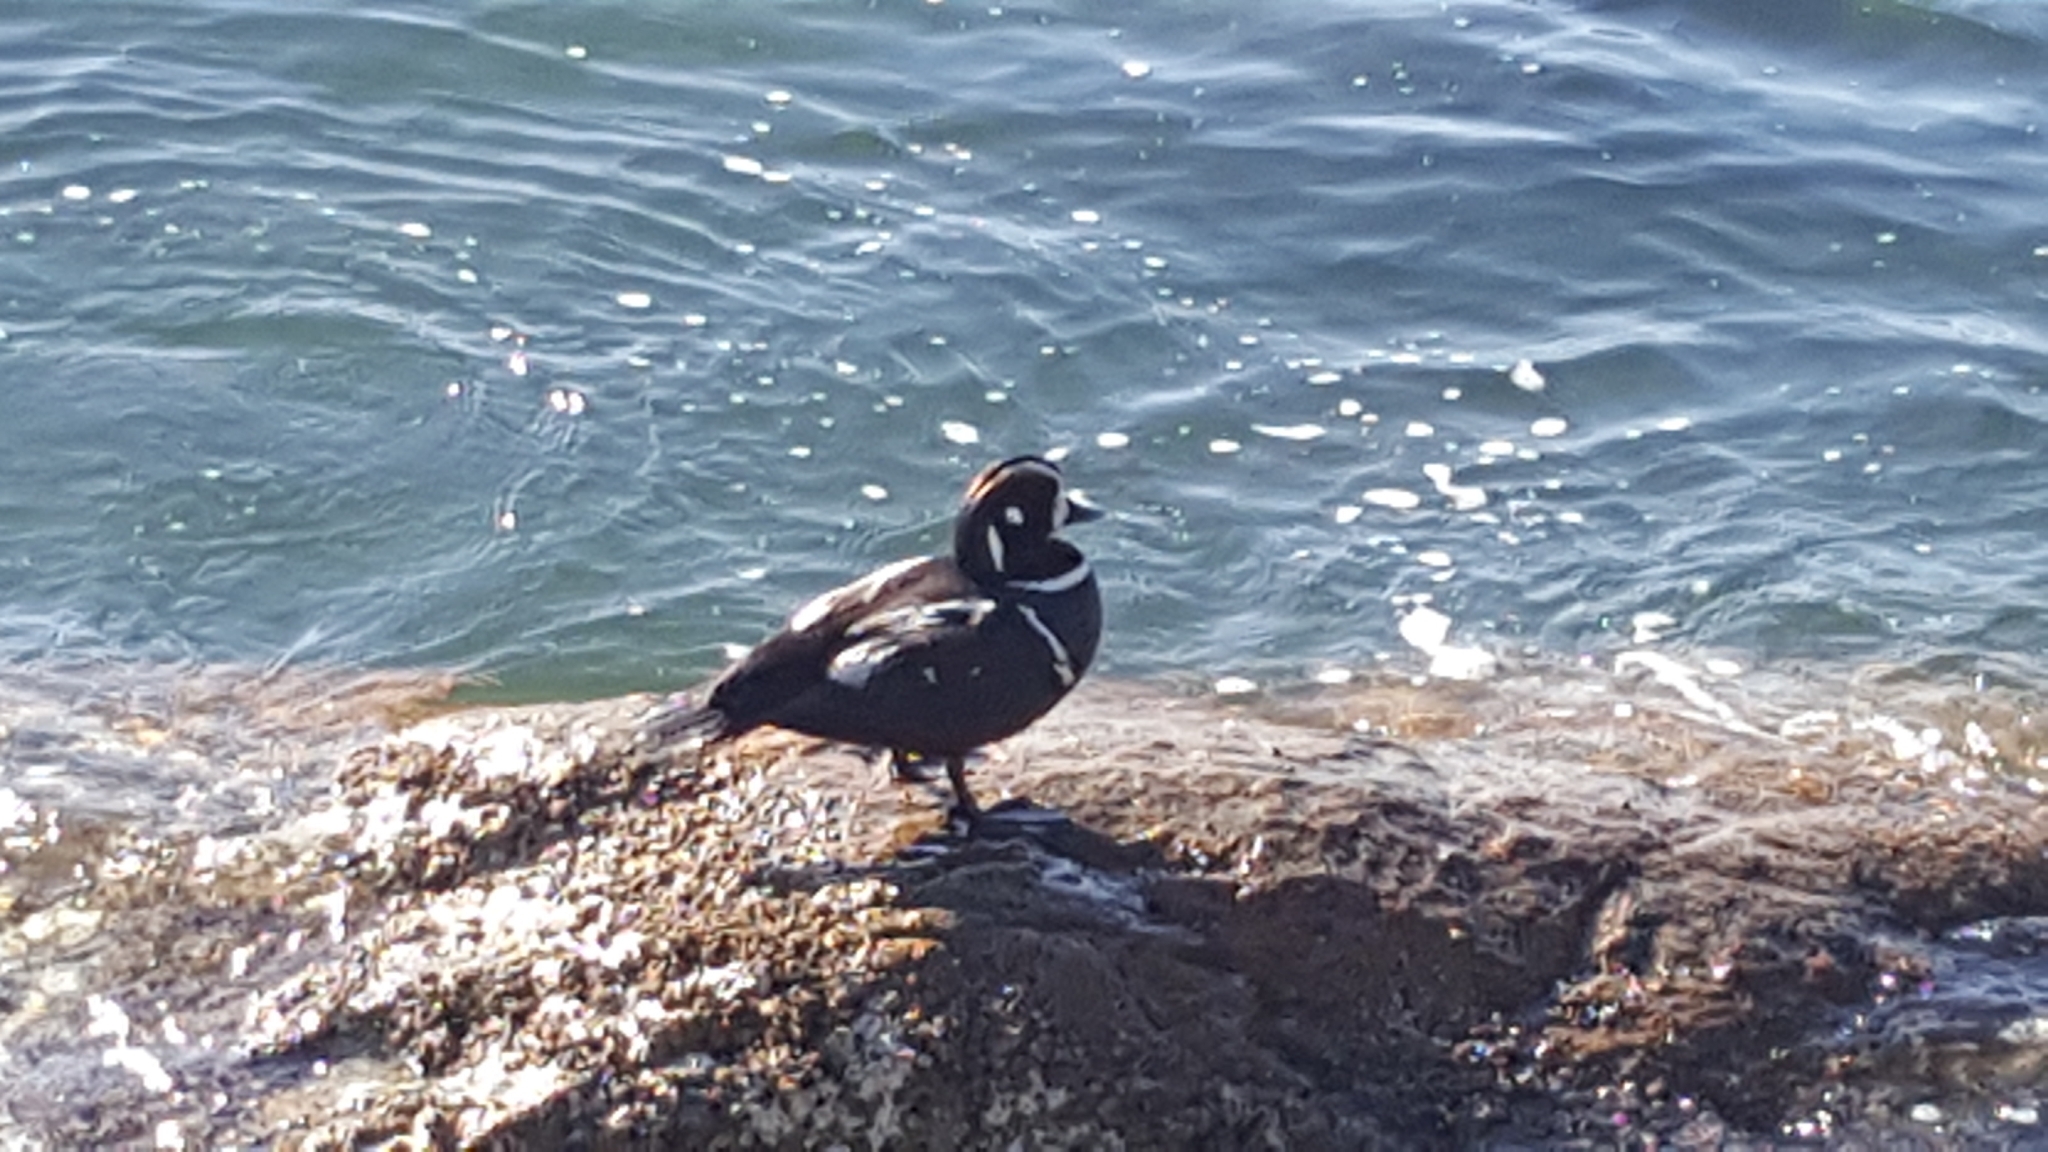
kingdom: Animalia
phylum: Chordata
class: Aves
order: Anseriformes
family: Anatidae
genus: Histrionicus
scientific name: Histrionicus histrionicus
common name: Harlequin duck
